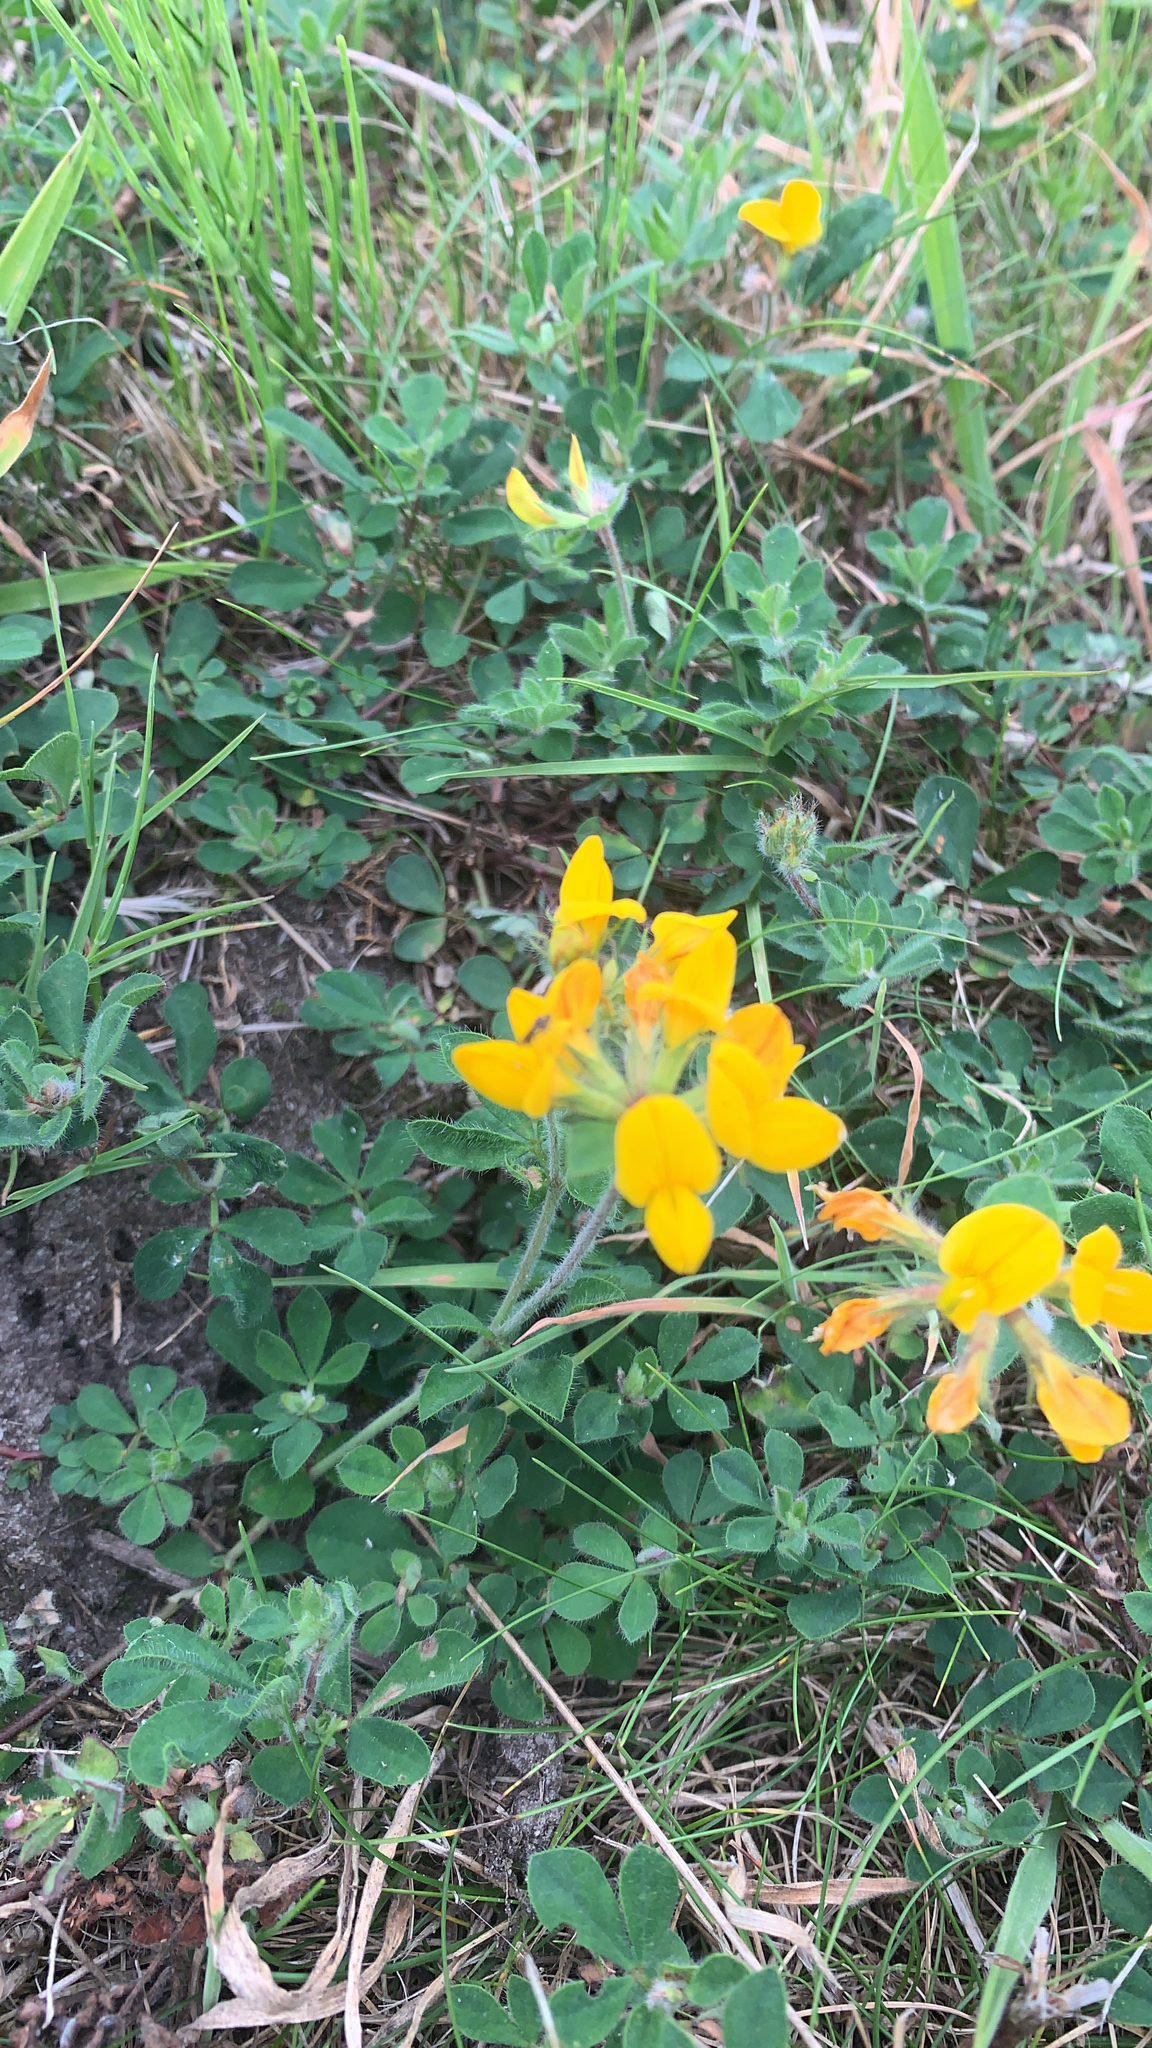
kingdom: Plantae
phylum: Tracheophyta
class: Magnoliopsida
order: Fabales
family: Fabaceae
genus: Lotus
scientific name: Lotus corniculatus
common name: Common bird's-foot-trefoil
